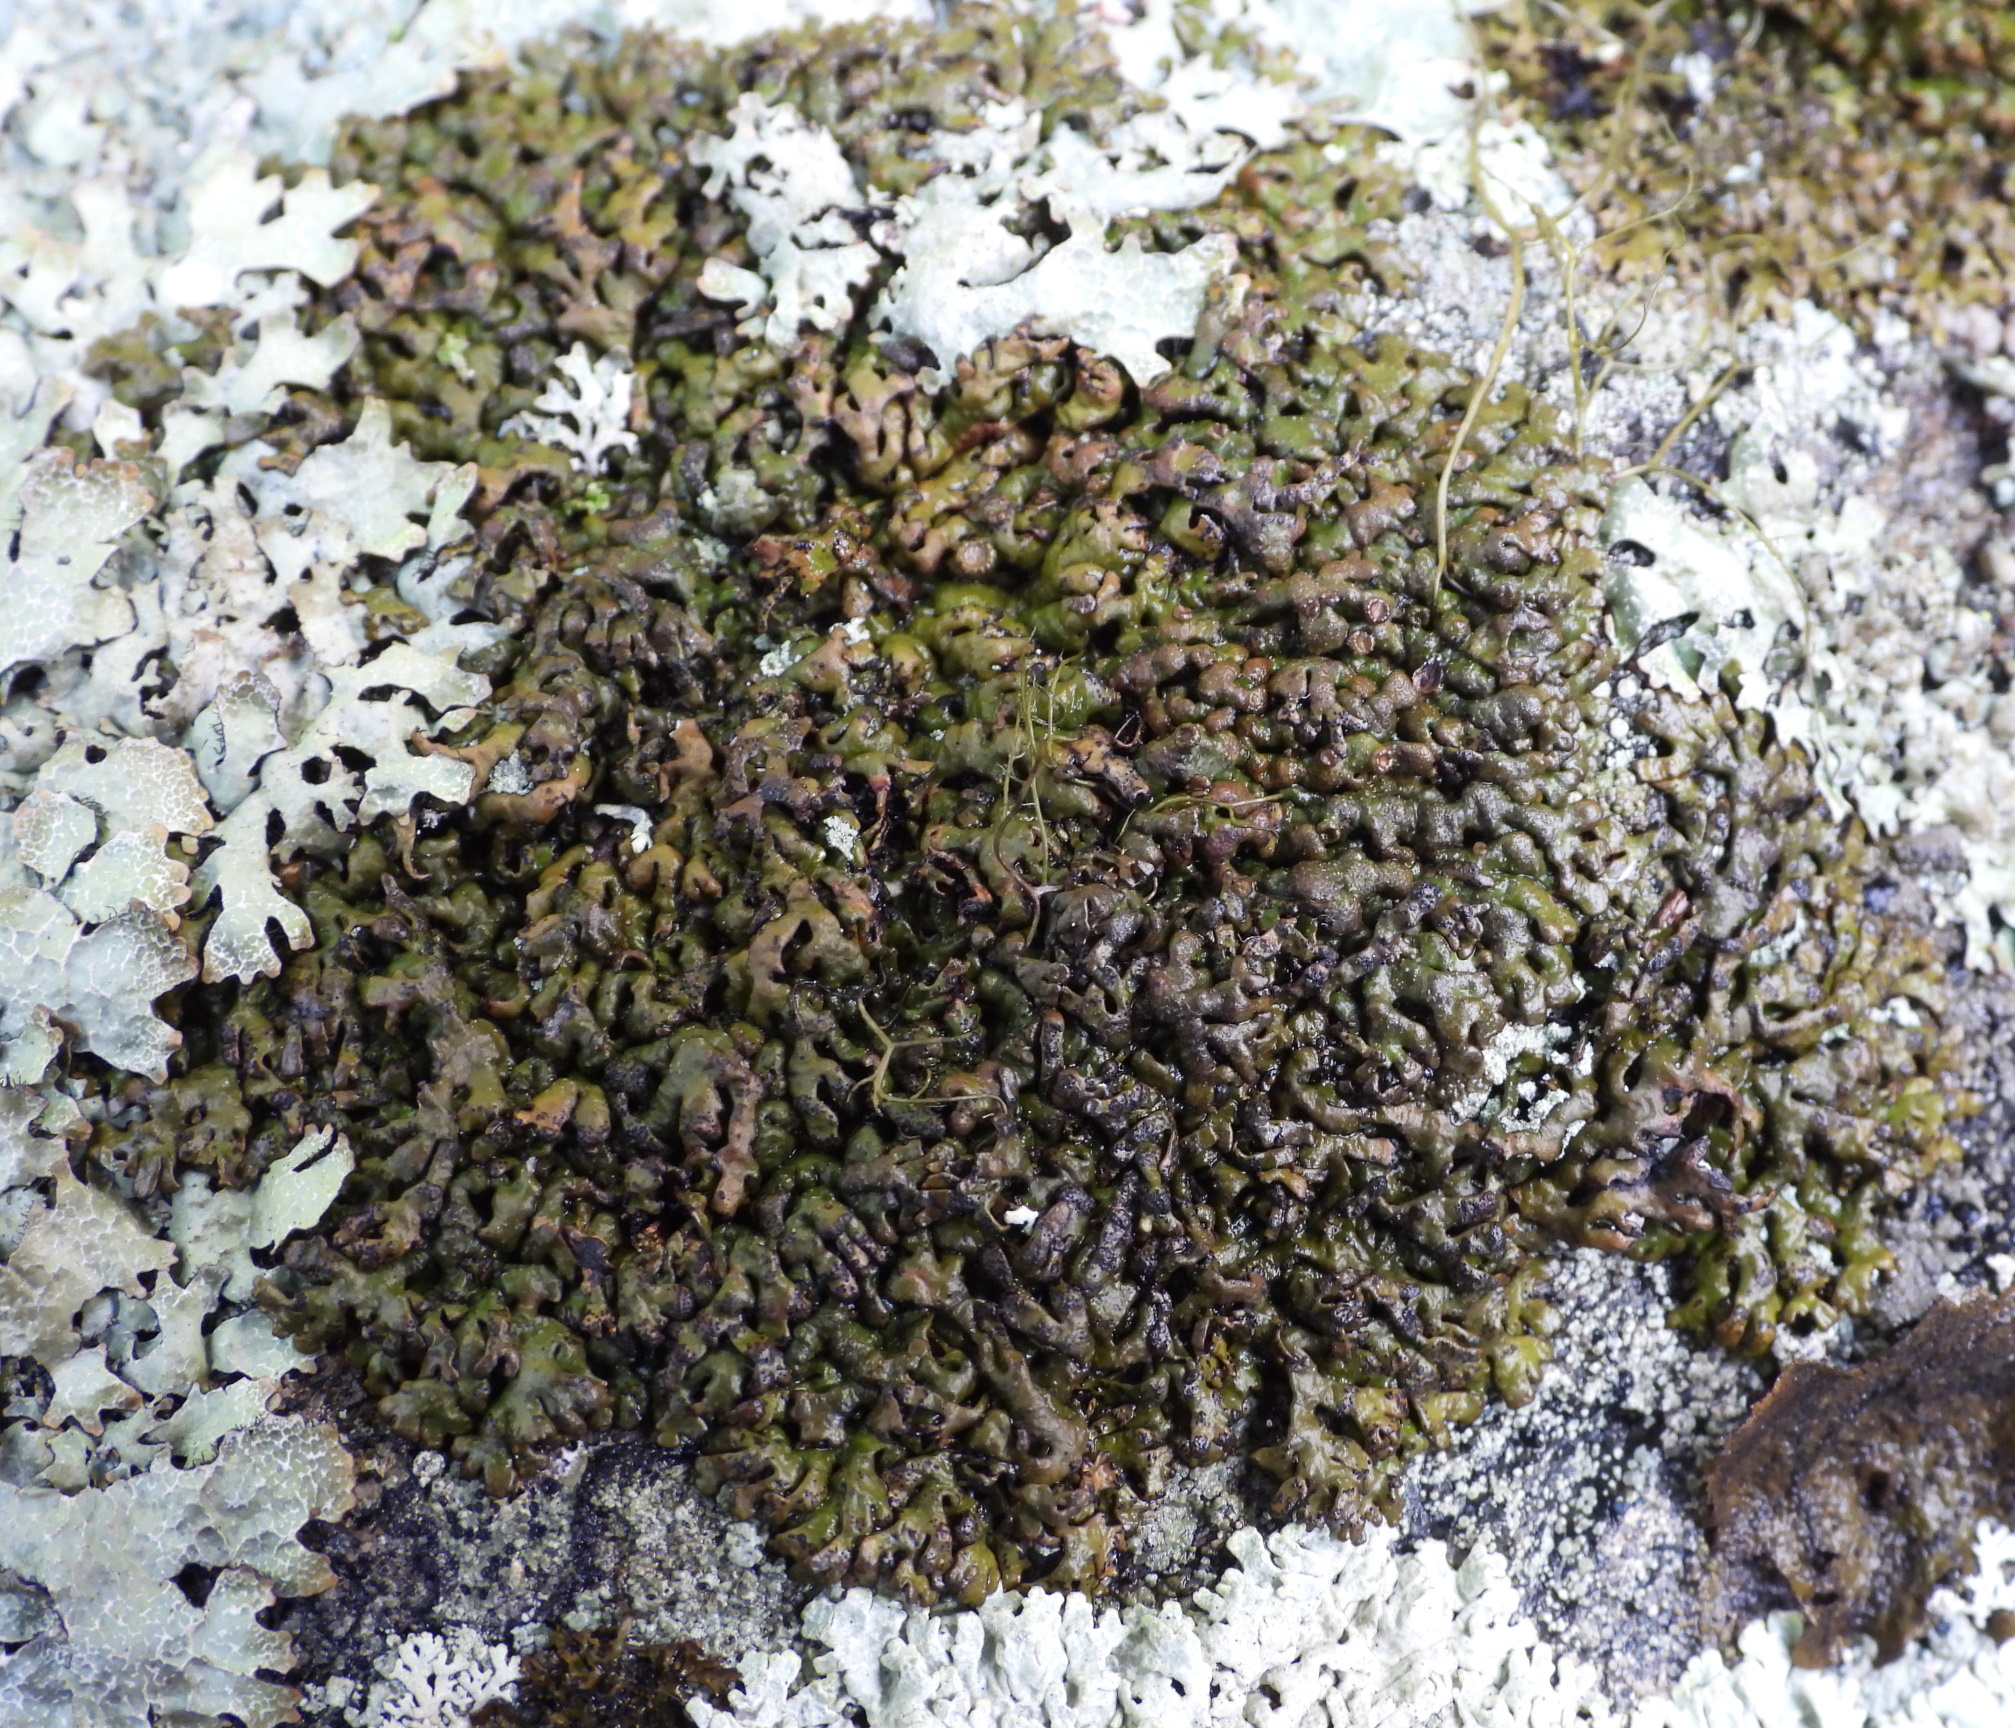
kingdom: Fungi
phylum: Ascomycota
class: Lecanoromycetes
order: Lecanorales
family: Parmeliaceae
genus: Melanelia
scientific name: Melanelia stygia
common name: Alpine camouflage lichen
